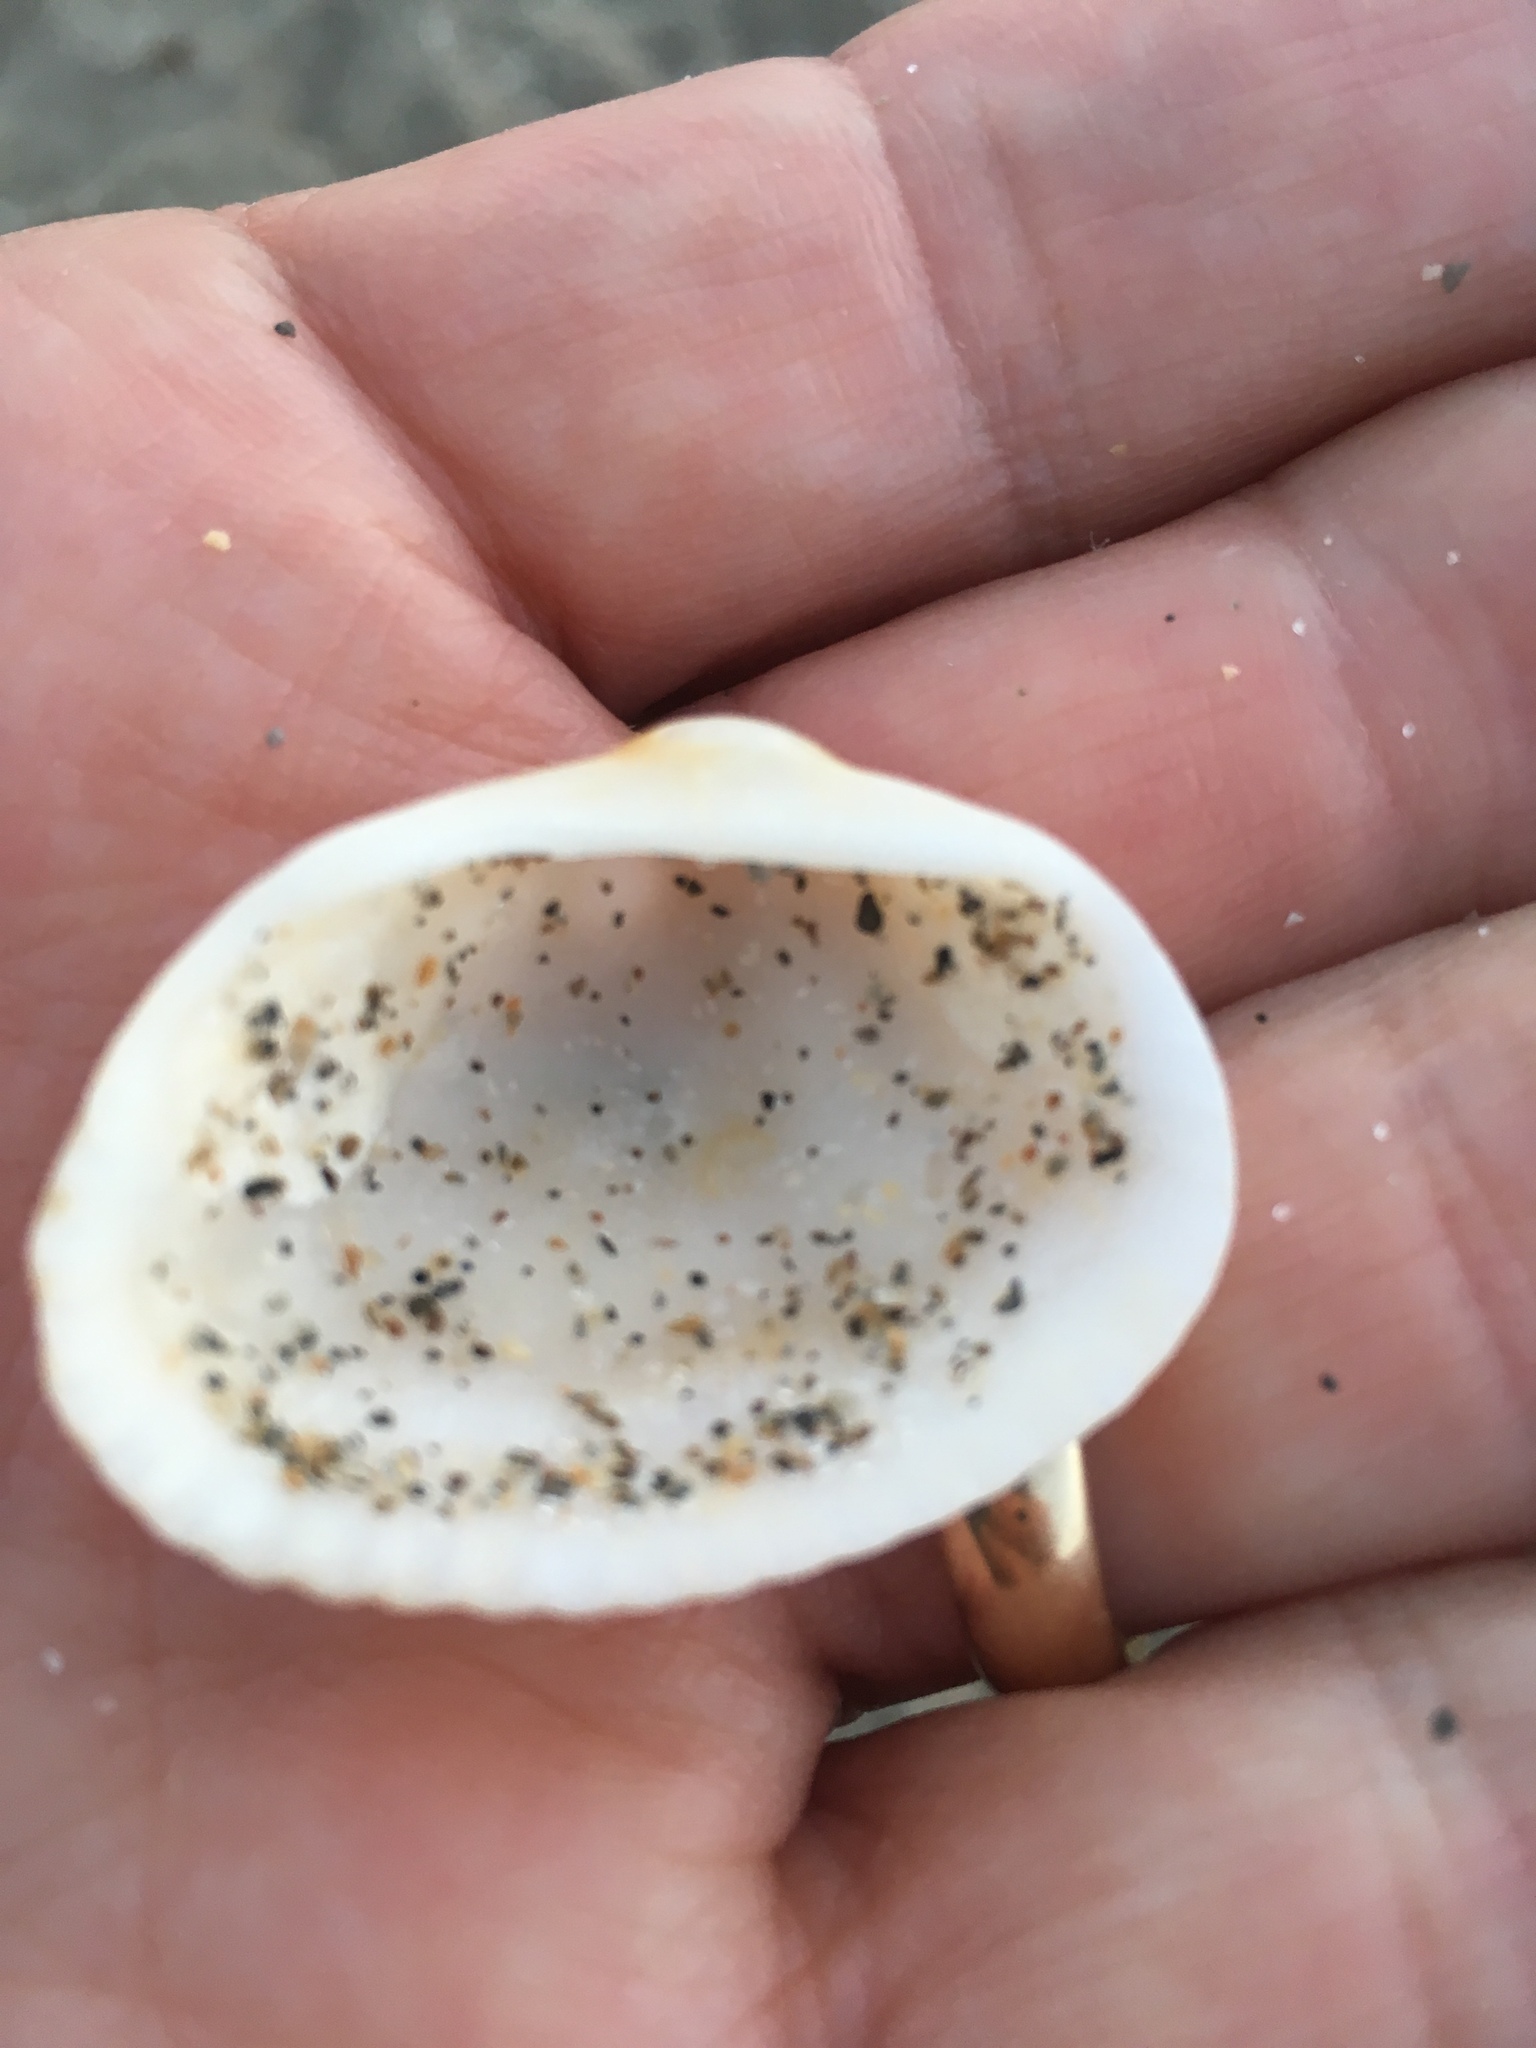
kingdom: Animalia
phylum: Mollusca
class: Bivalvia
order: Arcida
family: Arcidae
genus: Anadara
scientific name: Anadara transversa
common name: Transverse ark
